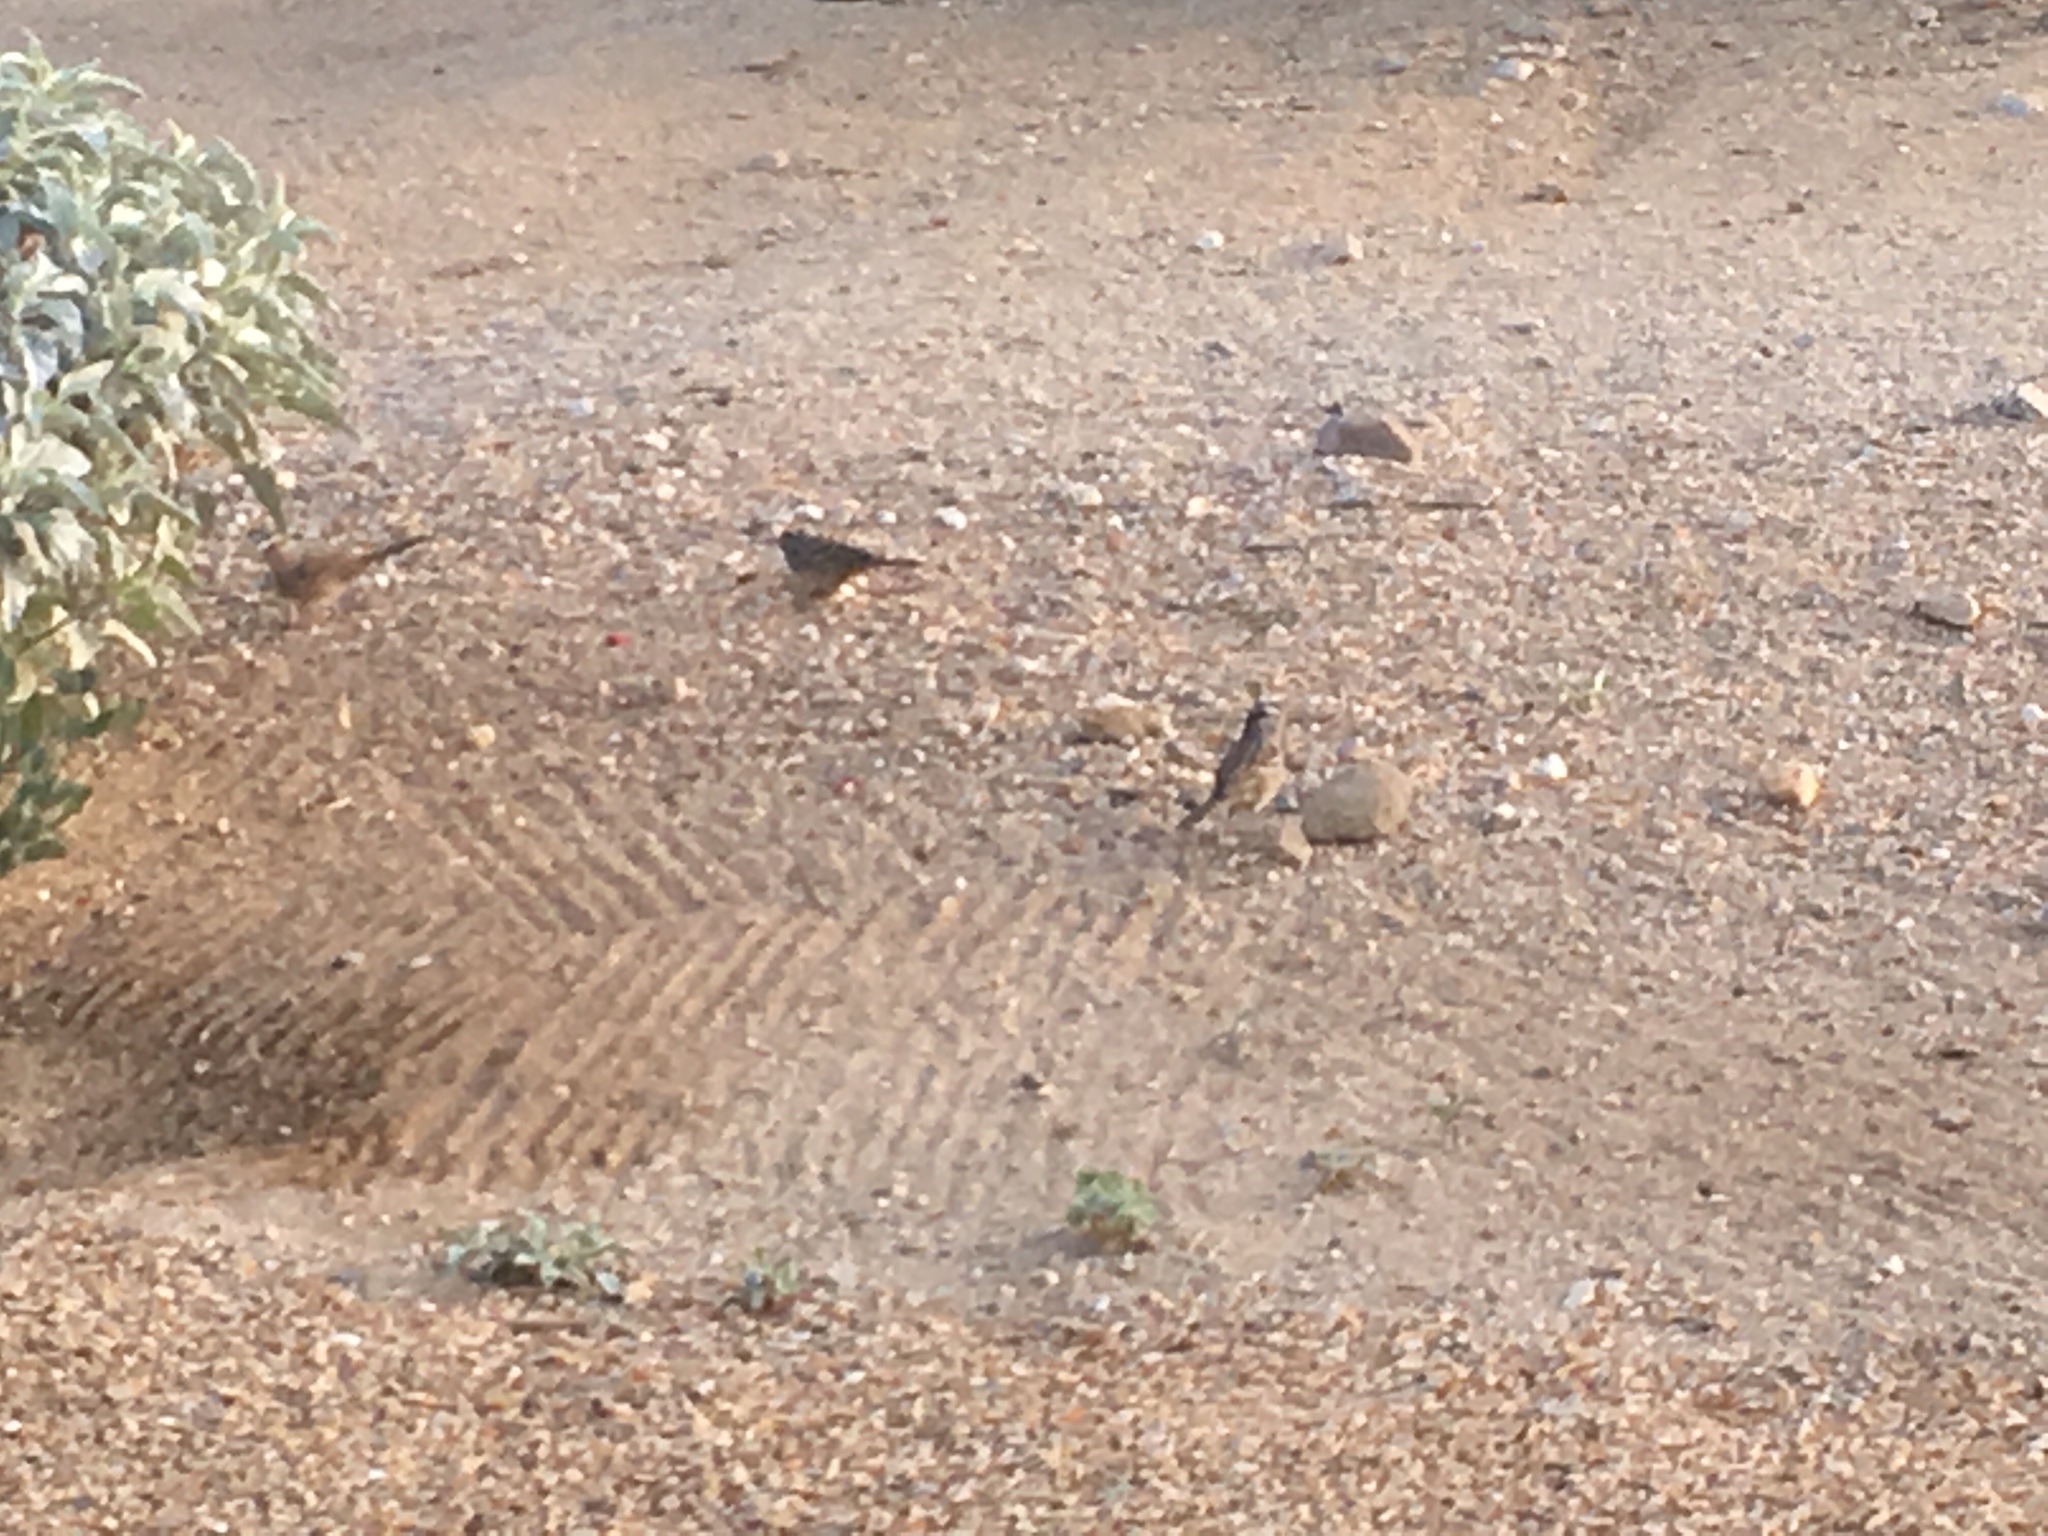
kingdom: Animalia
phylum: Chordata
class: Aves
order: Passeriformes
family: Passerellidae
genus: Zonotrichia
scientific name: Zonotrichia leucophrys
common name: White-crowned sparrow
